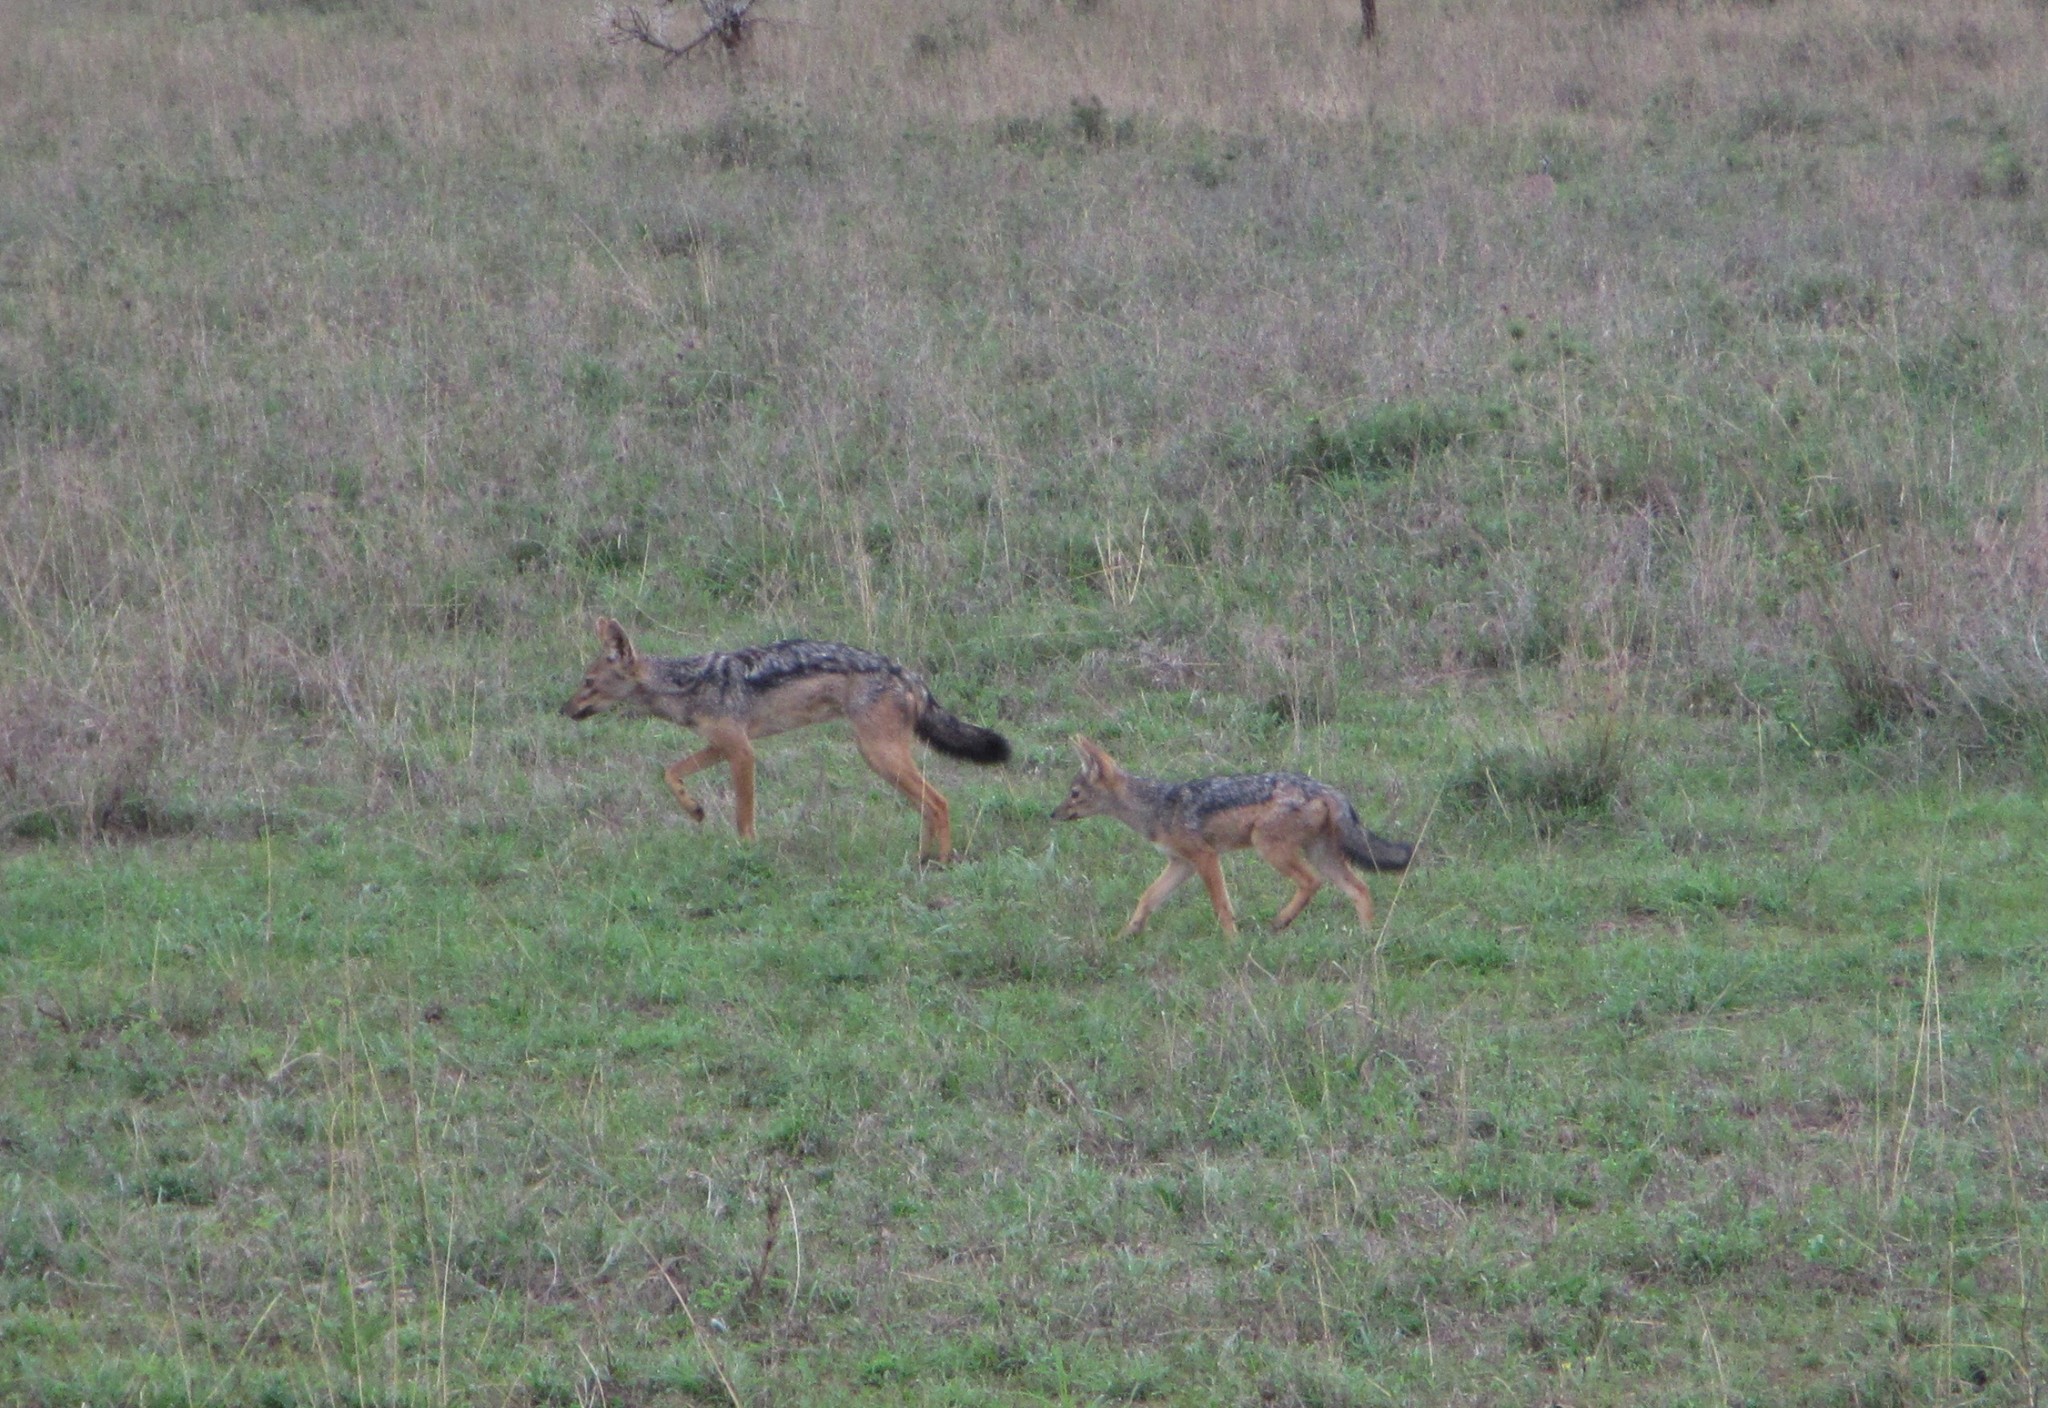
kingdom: Animalia
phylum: Chordata
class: Mammalia
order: Carnivora
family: Canidae
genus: Lupulella
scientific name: Lupulella
